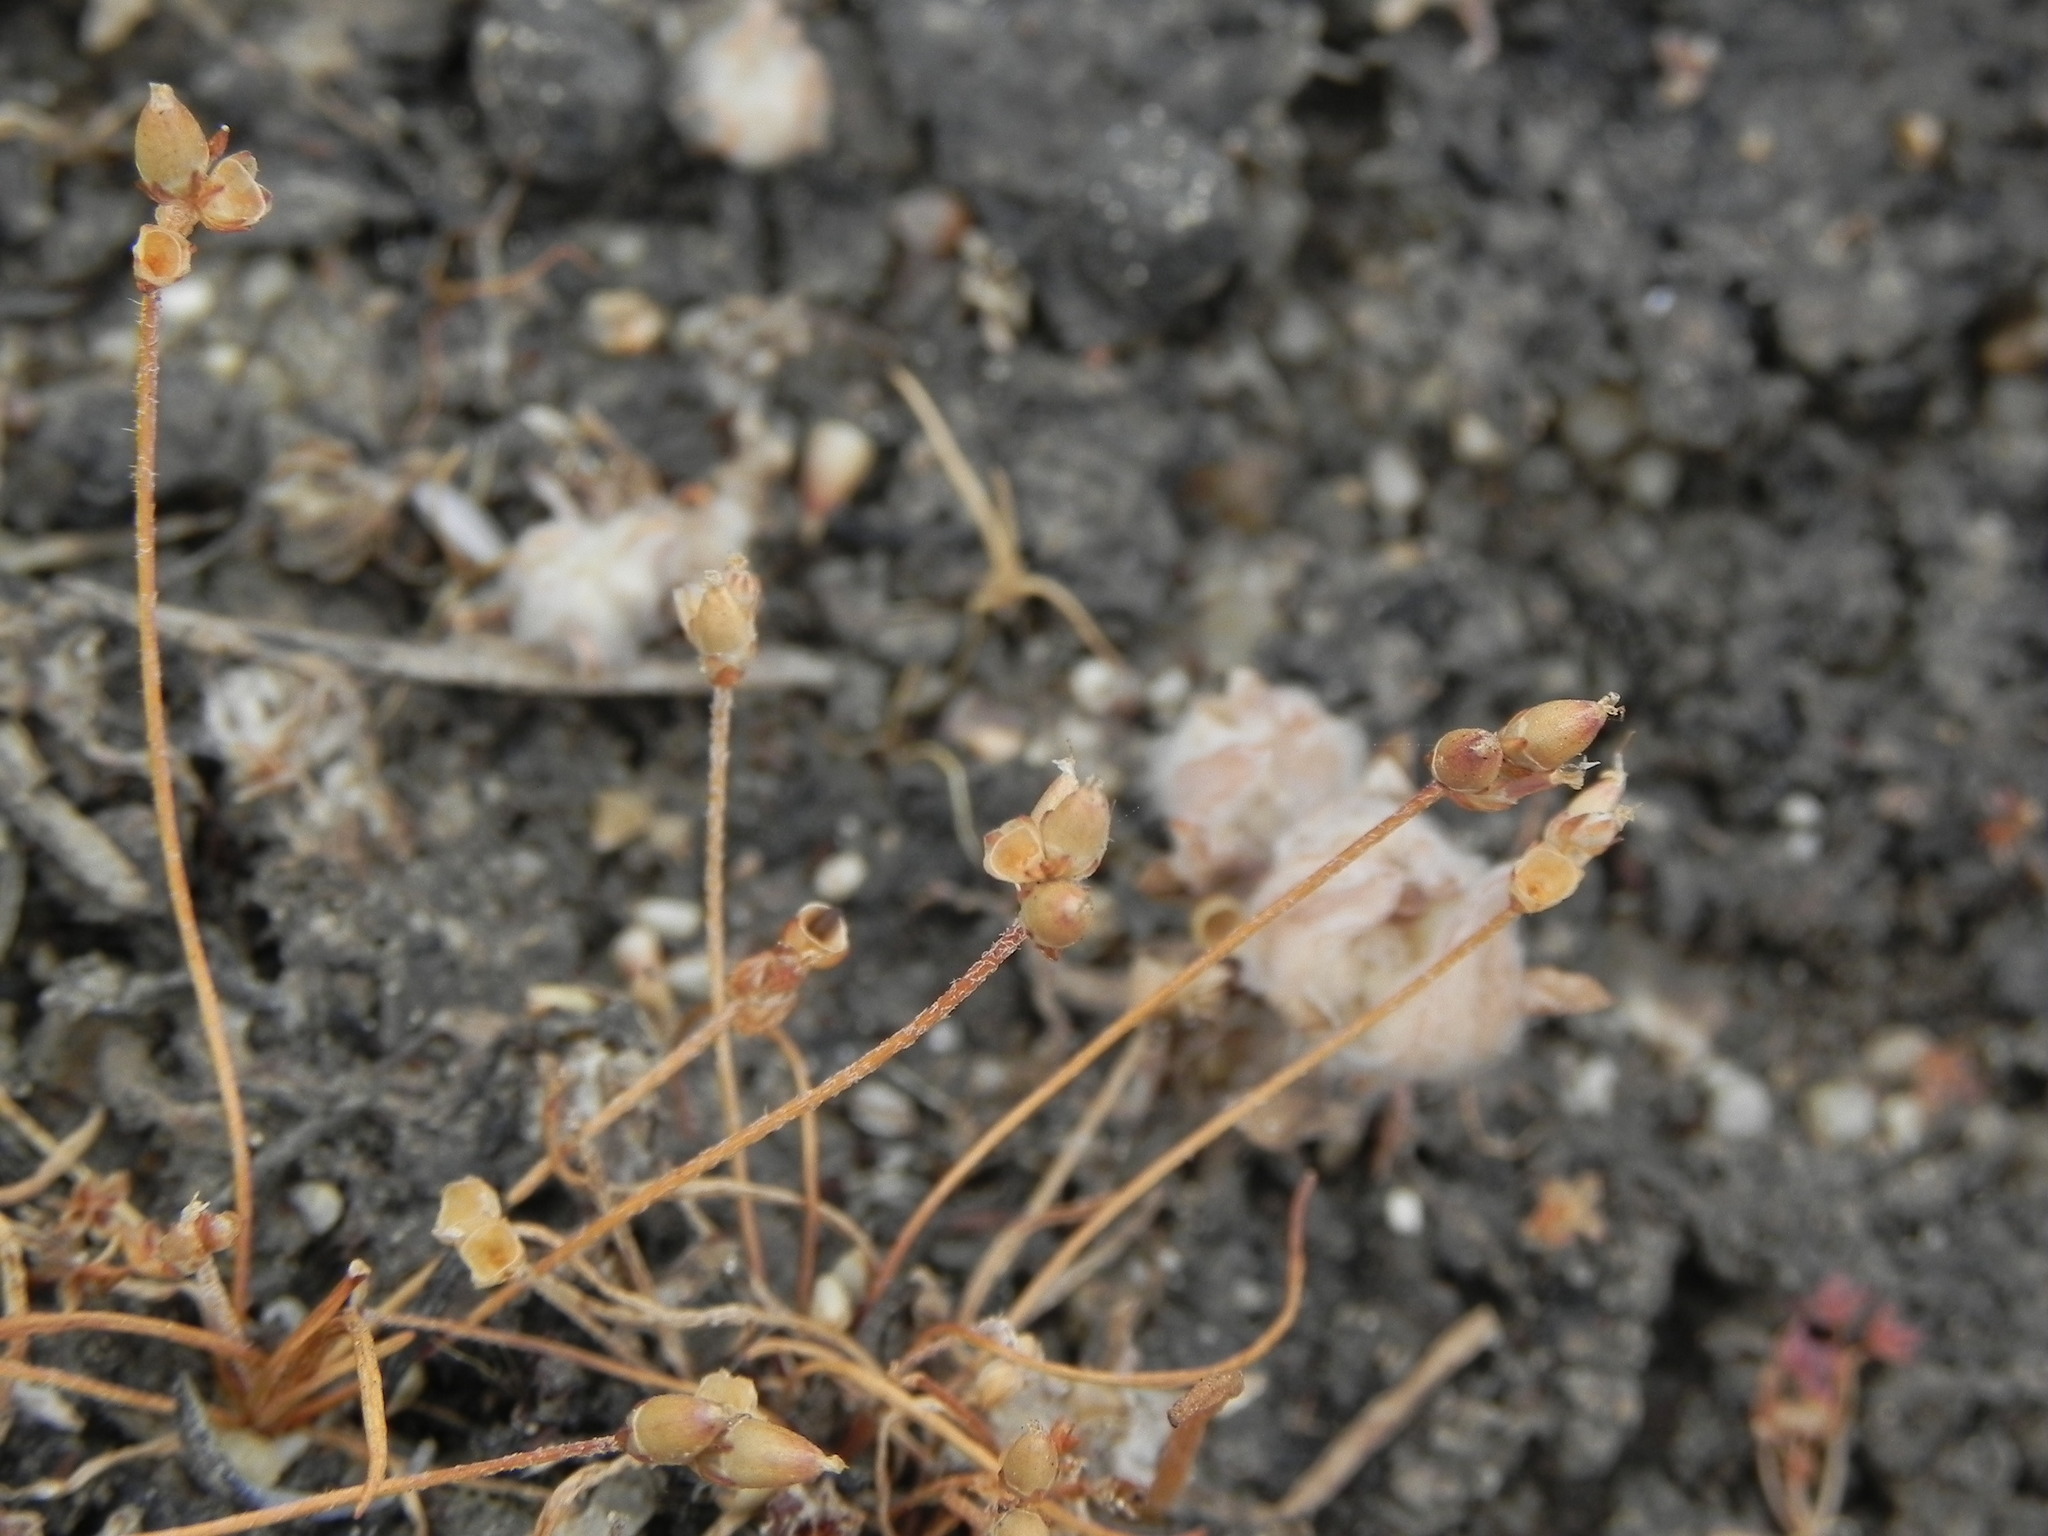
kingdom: Plantae
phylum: Tracheophyta
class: Magnoliopsida
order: Lamiales
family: Plantaginaceae
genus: Plantago
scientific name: Plantago elongata
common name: Linear-leaved plantain
